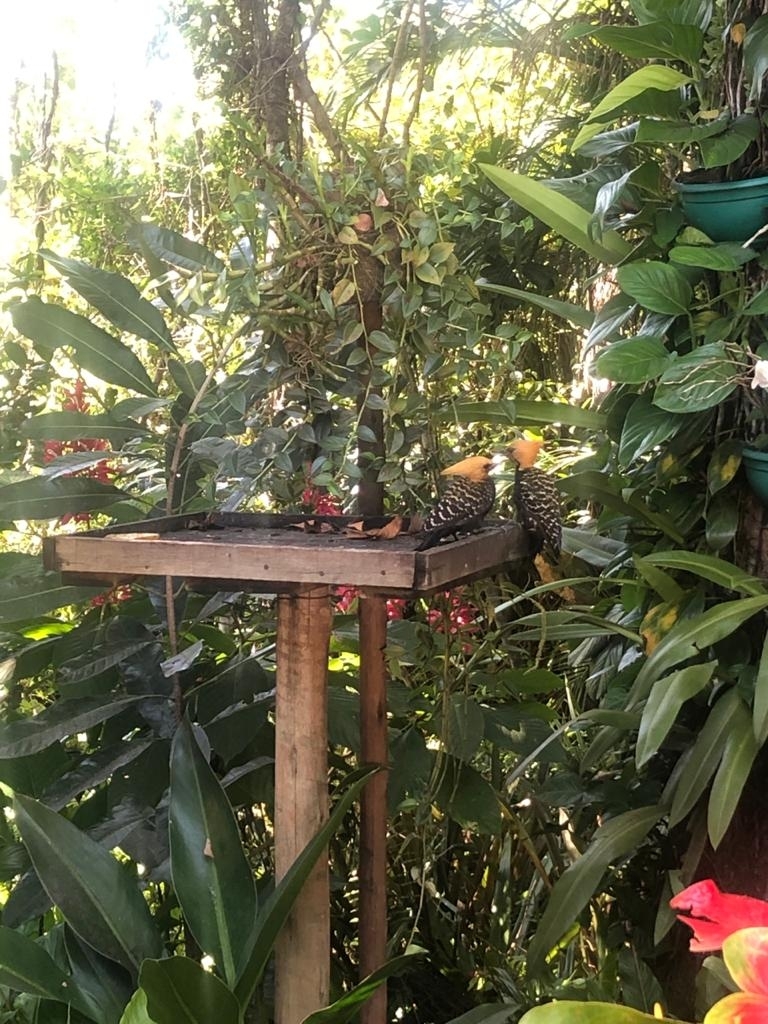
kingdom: Animalia
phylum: Chordata
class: Aves
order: Piciformes
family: Picidae
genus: Celeus
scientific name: Celeus flavescens
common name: Blond-crested woodpecker
